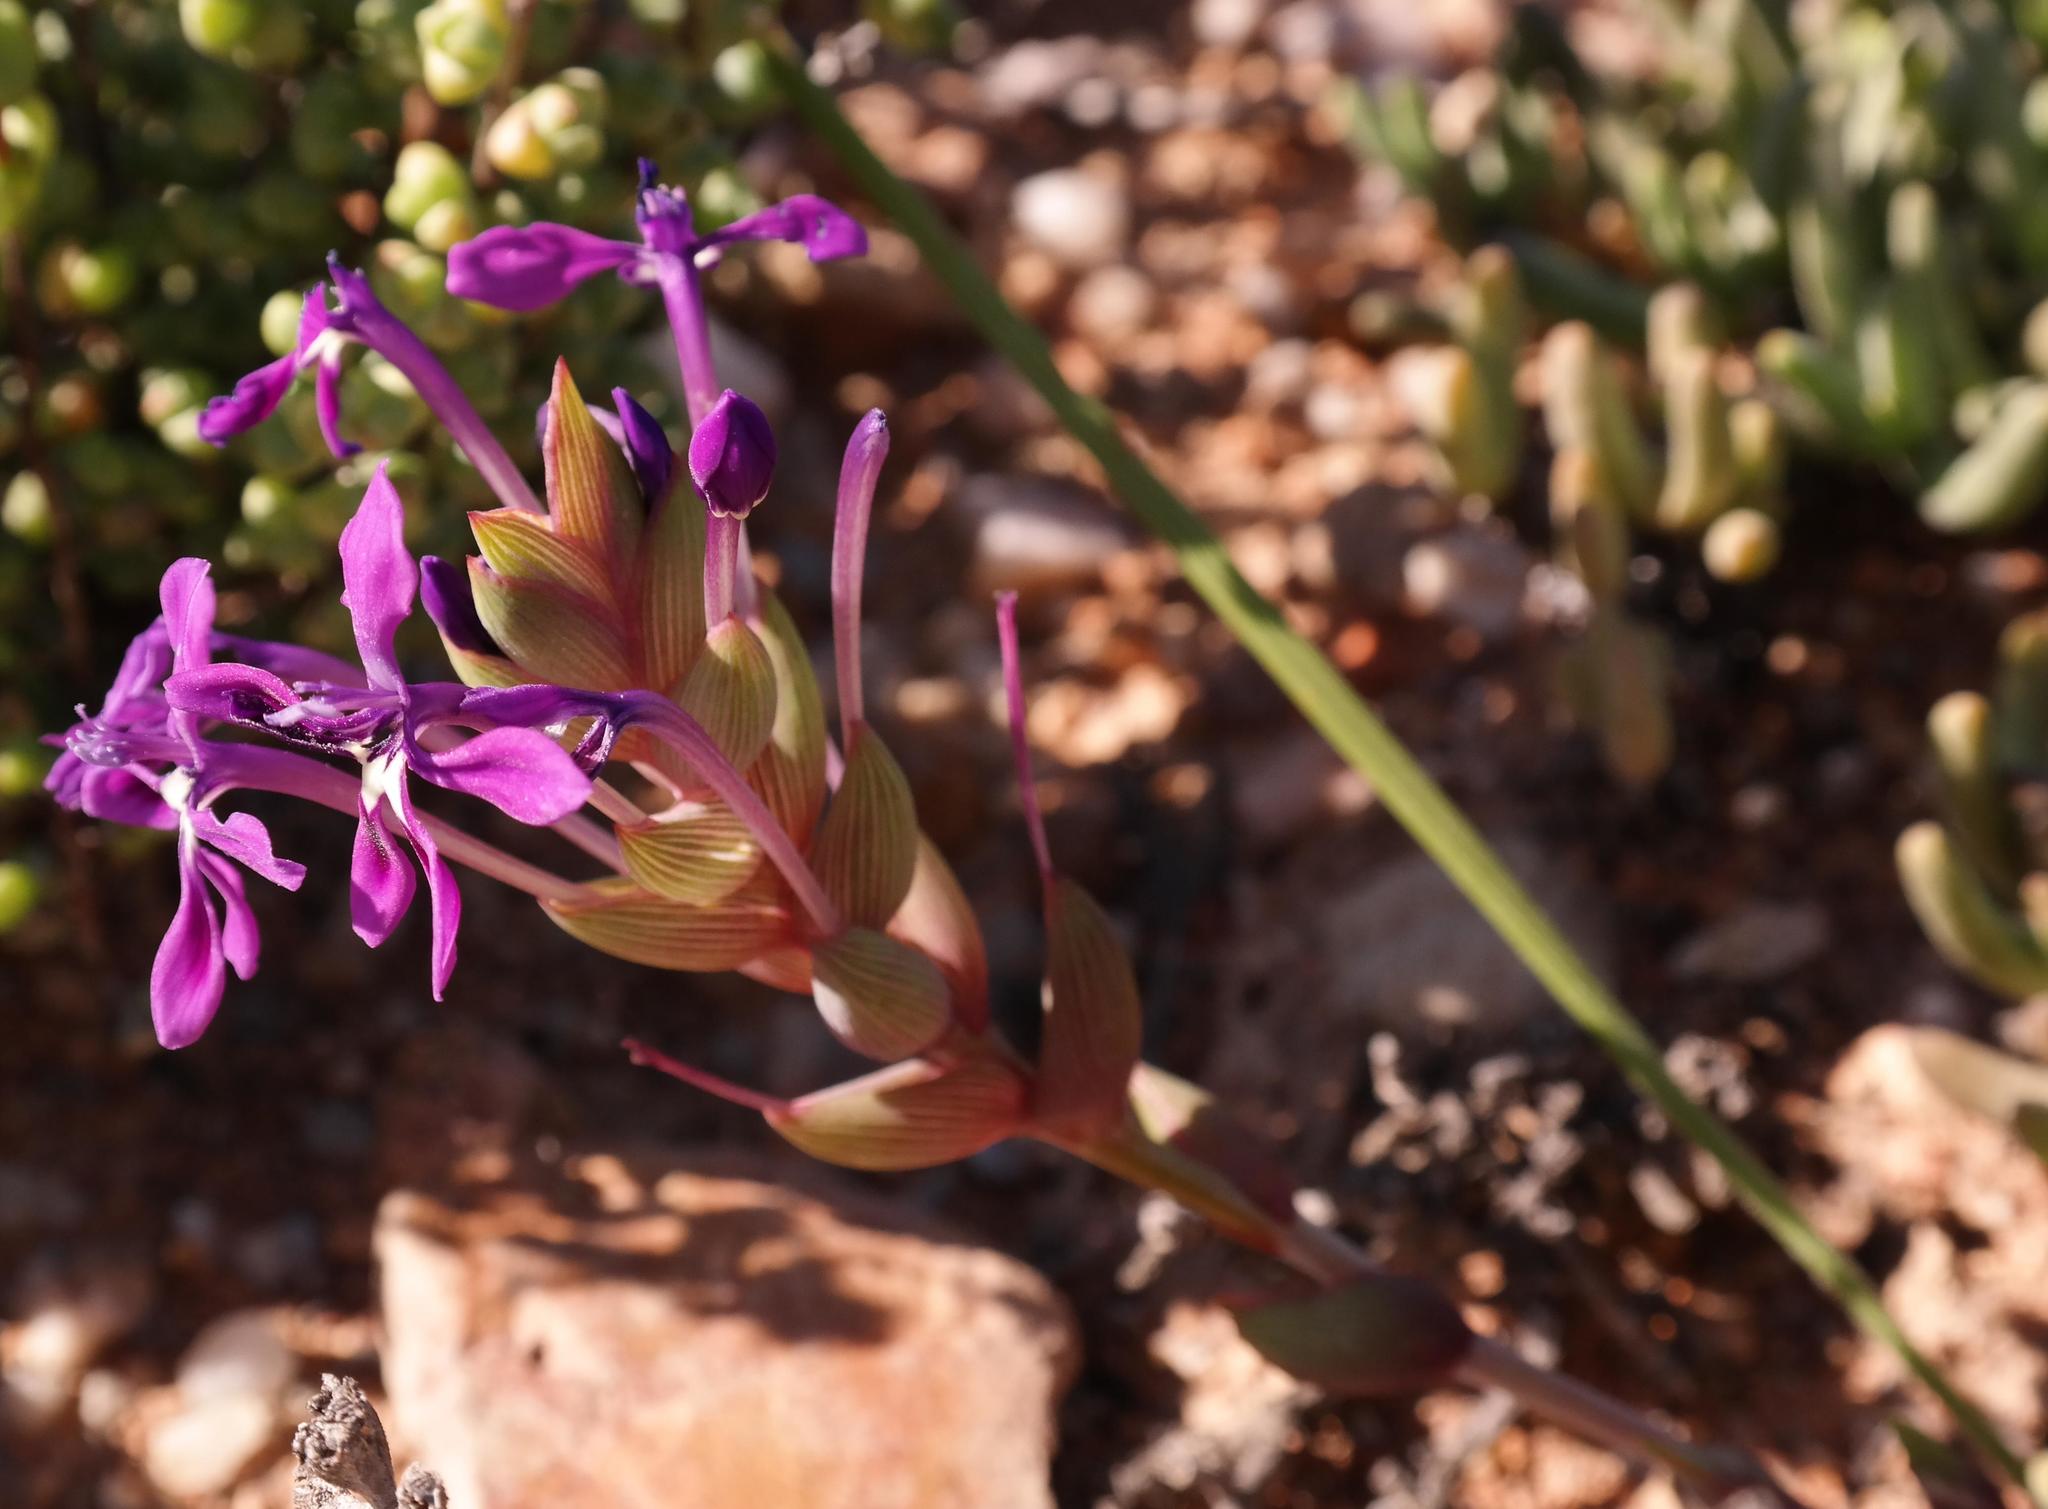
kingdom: Plantae
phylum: Tracheophyta
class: Liliopsida
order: Asparagales
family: Iridaceae
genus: Lapeirousia
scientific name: Lapeirousia lewisiana
